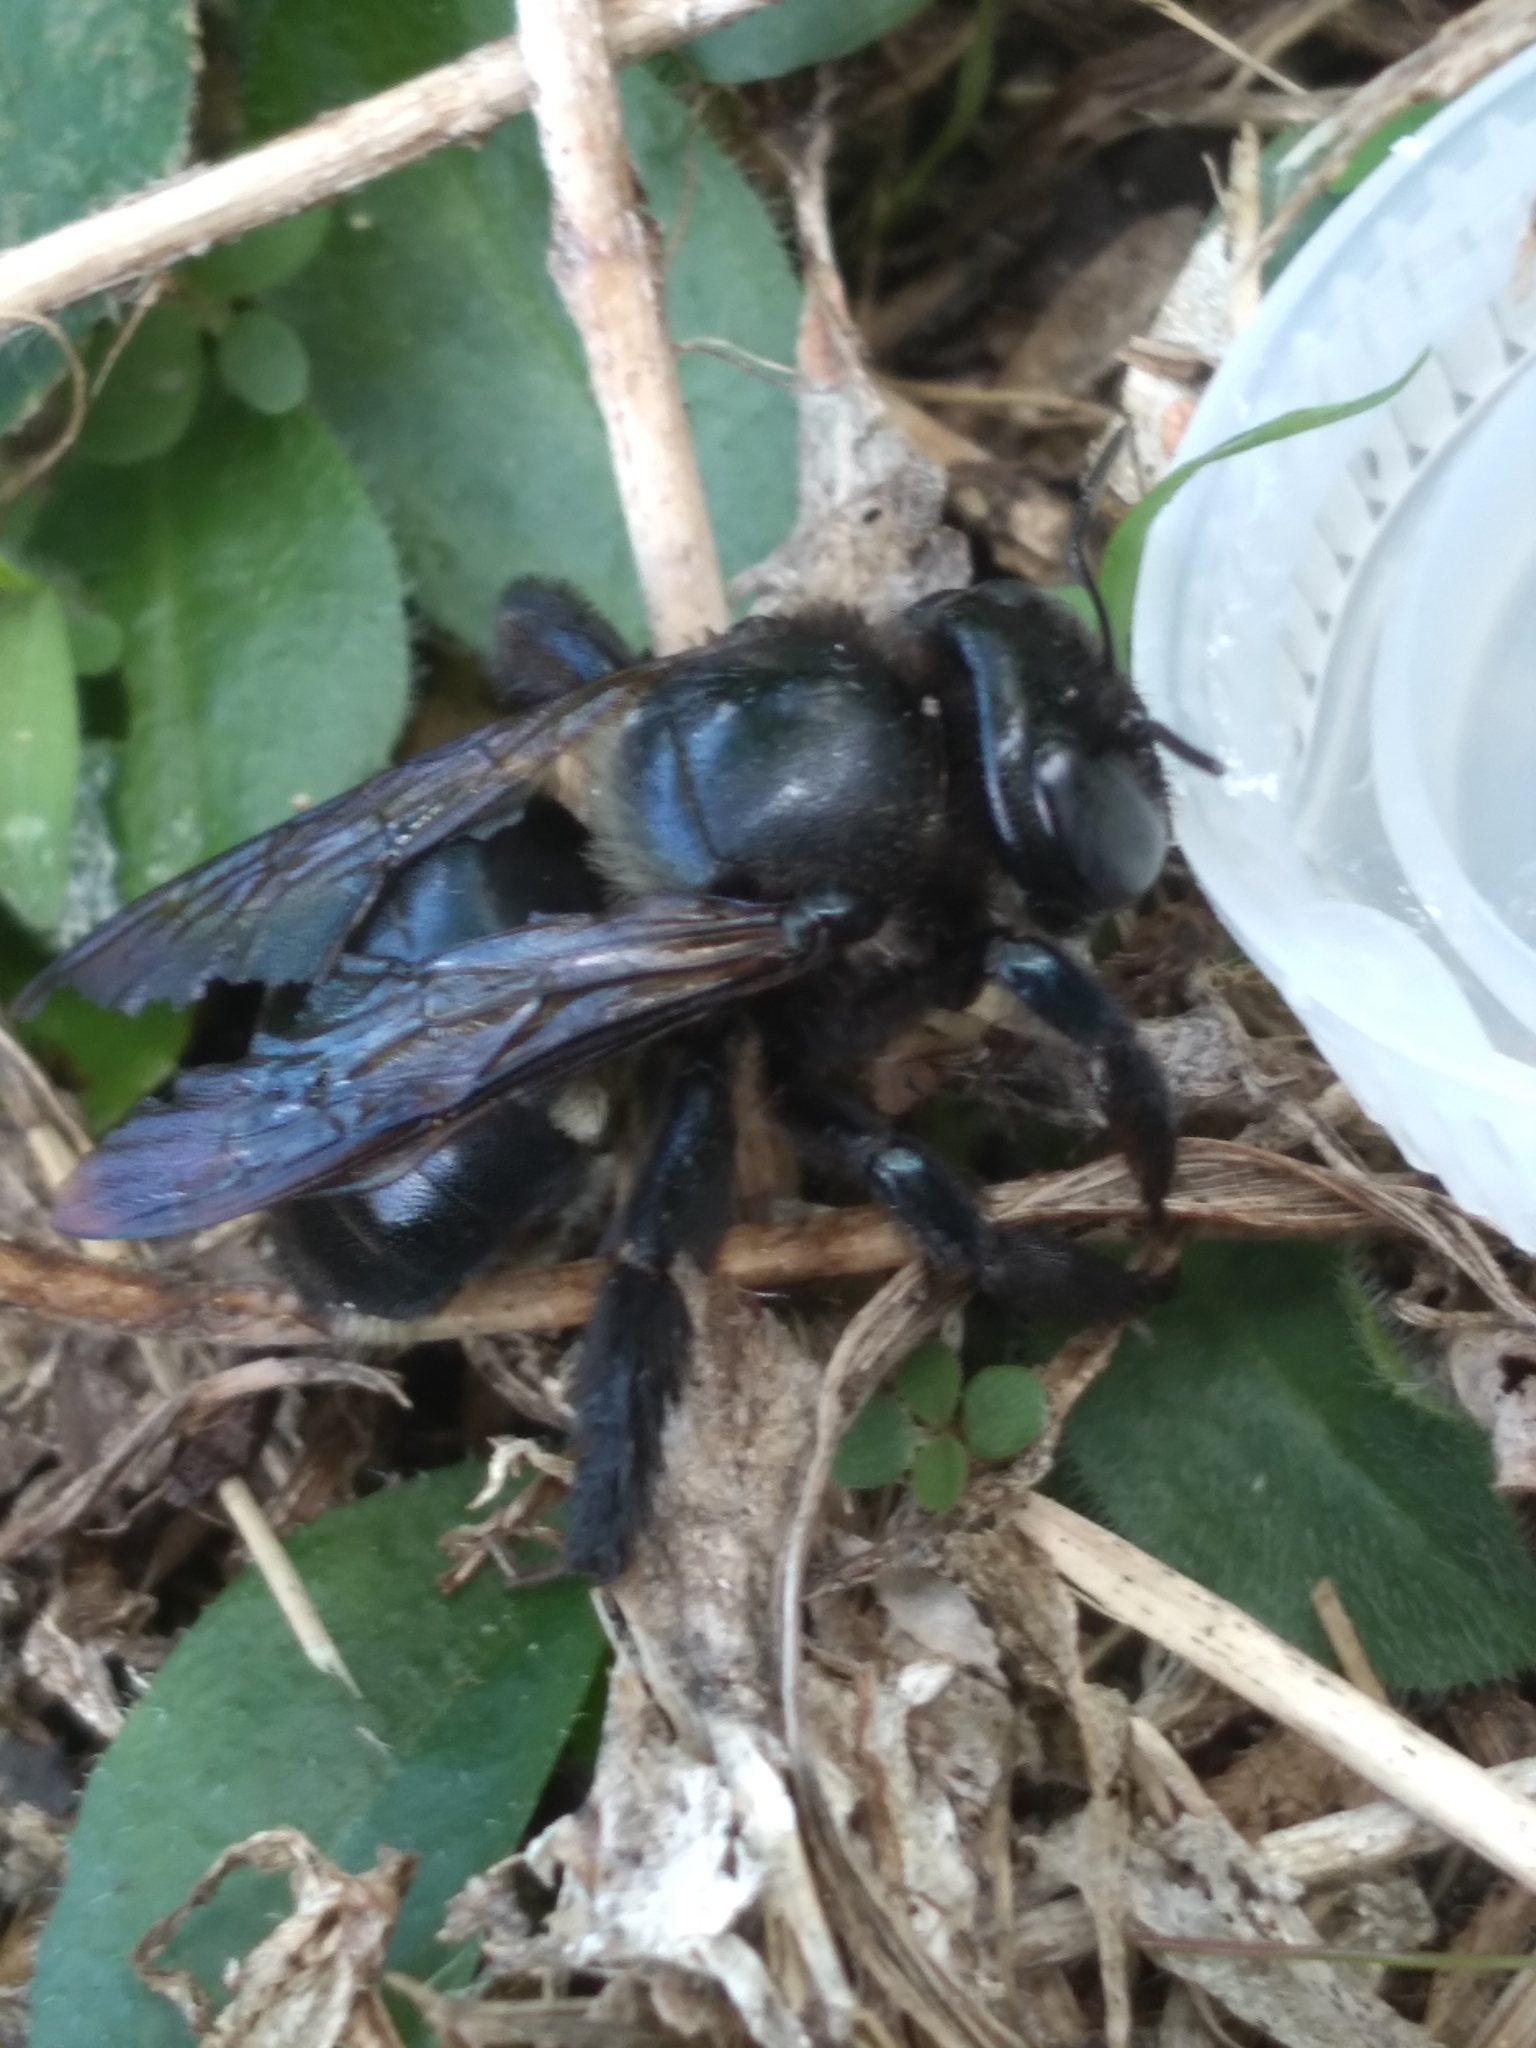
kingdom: Animalia
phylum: Arthropoda
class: Insecta
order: Hymenoptera
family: Apidae
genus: Xylocopa
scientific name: Xylocopa micans
